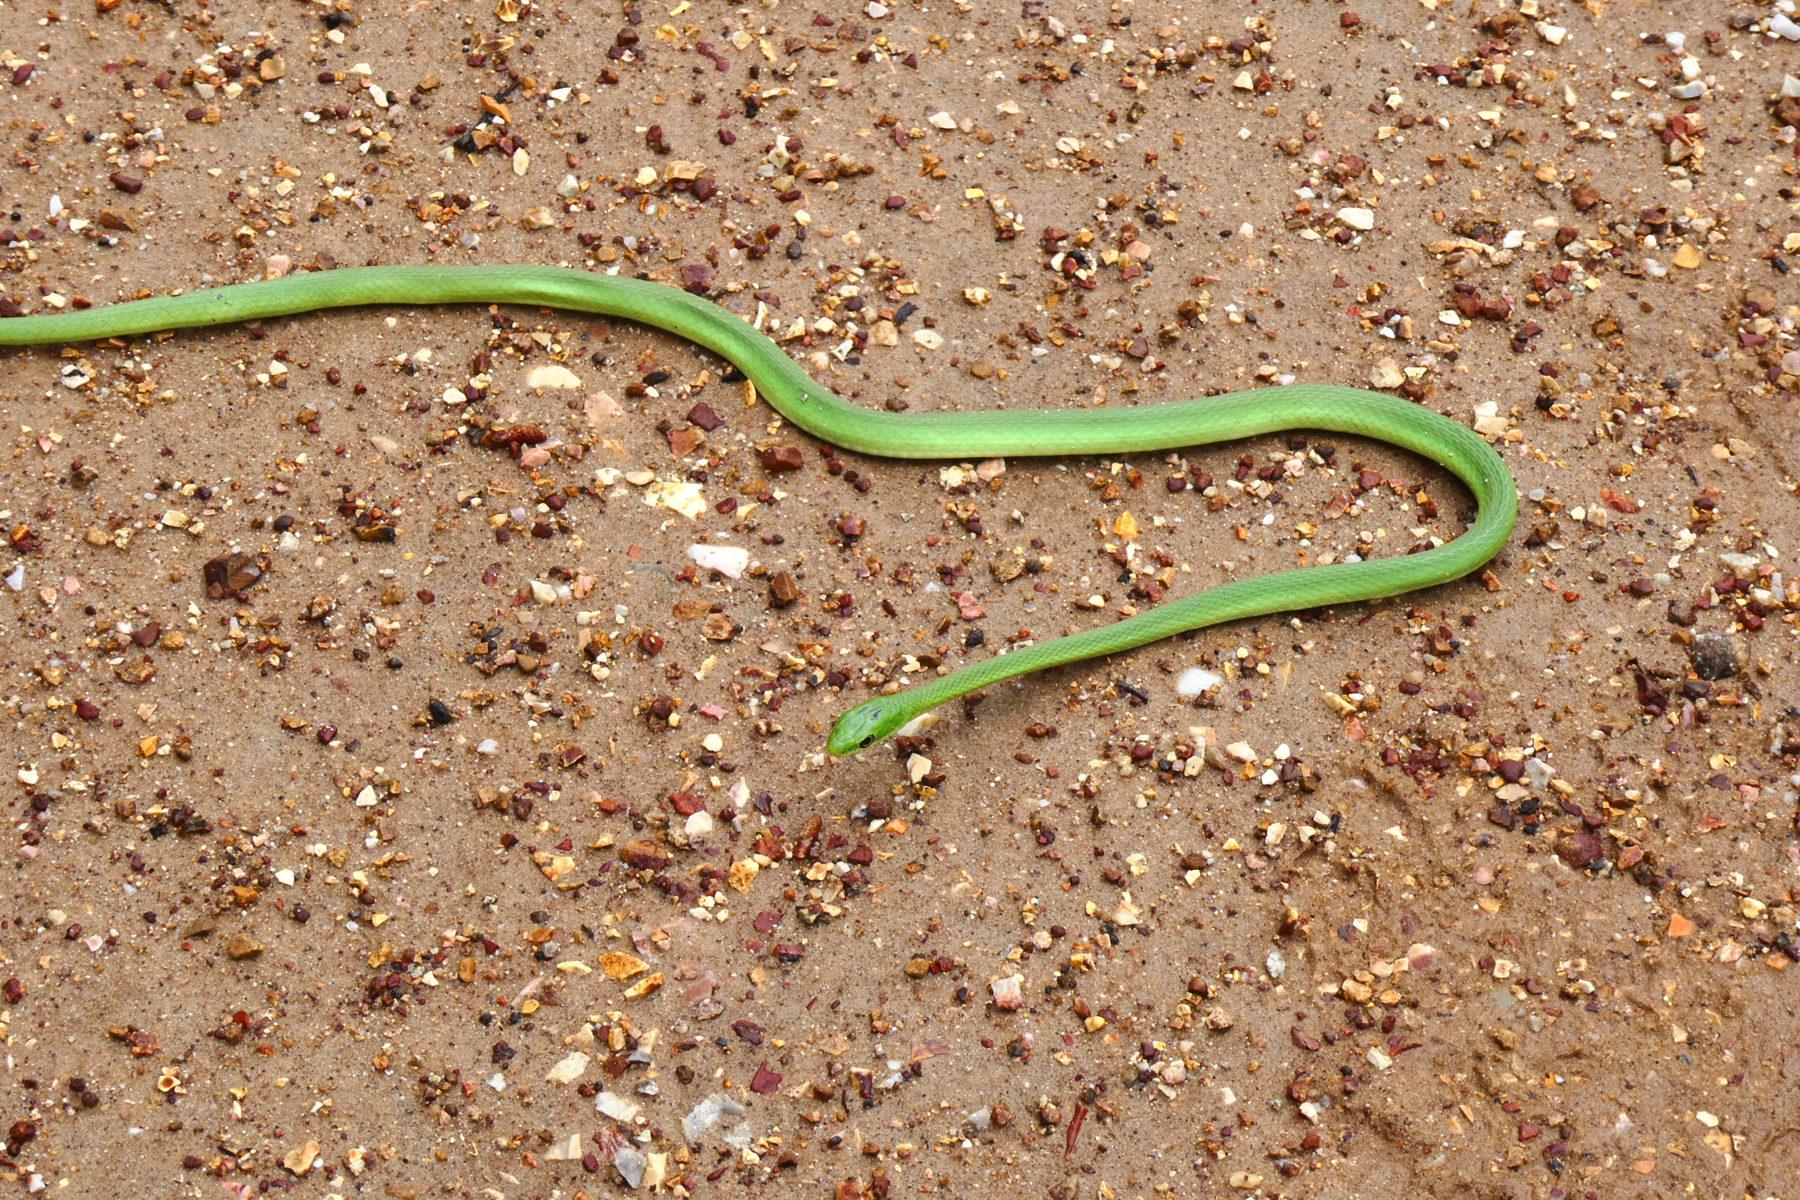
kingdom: Animalia
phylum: Chordata
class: Squamata
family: Colubridae
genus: Opheodrys
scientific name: Opheodrys aestivus
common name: Rough greensnake
